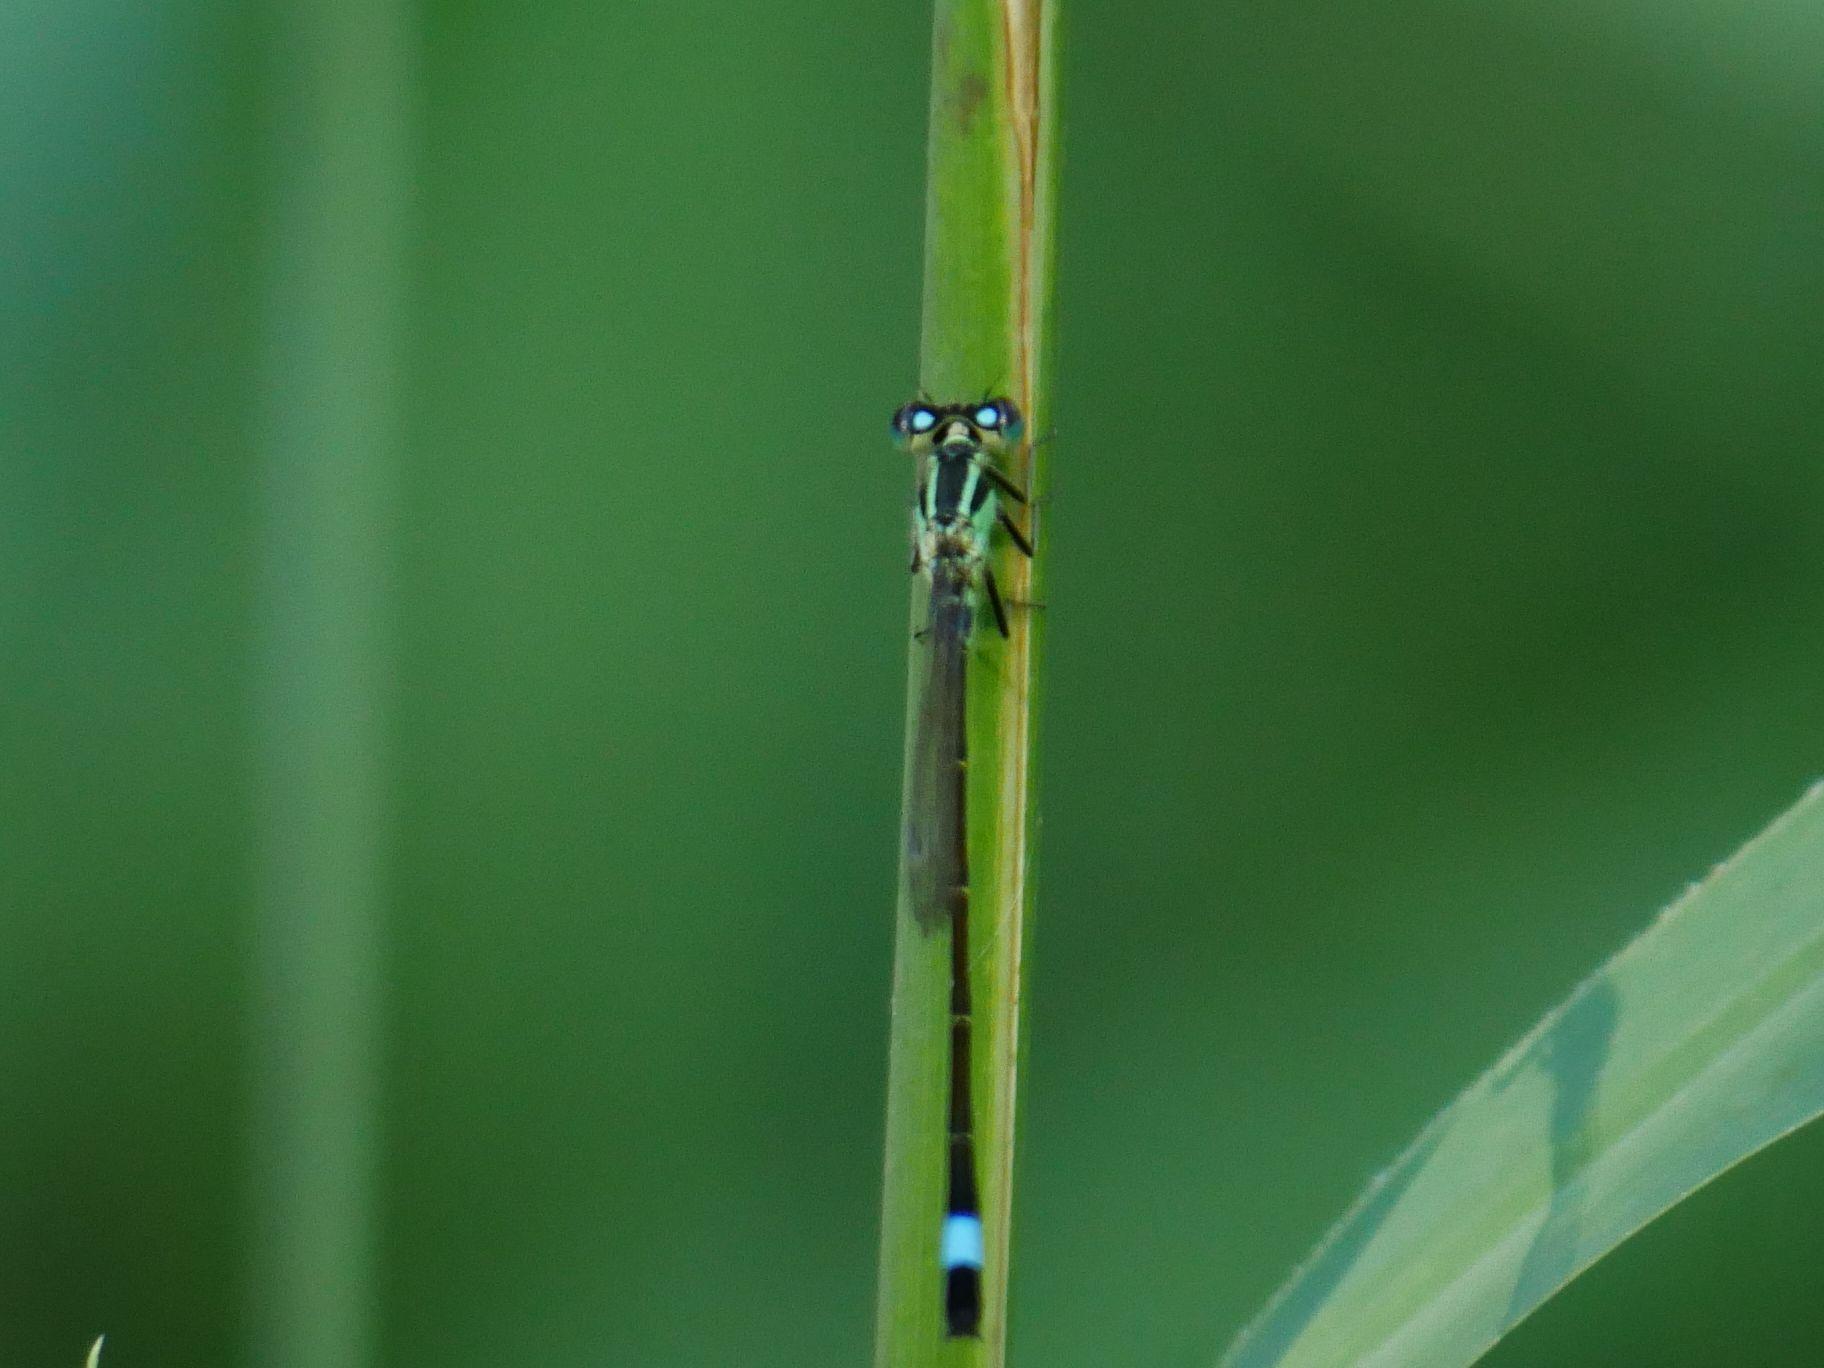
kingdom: Animalia
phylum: Arthropoda
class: Insecta
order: Odonata
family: Coenagrionidae
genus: Ischnura
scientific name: Ischnura elegans
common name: Blue-tailed damselfly
